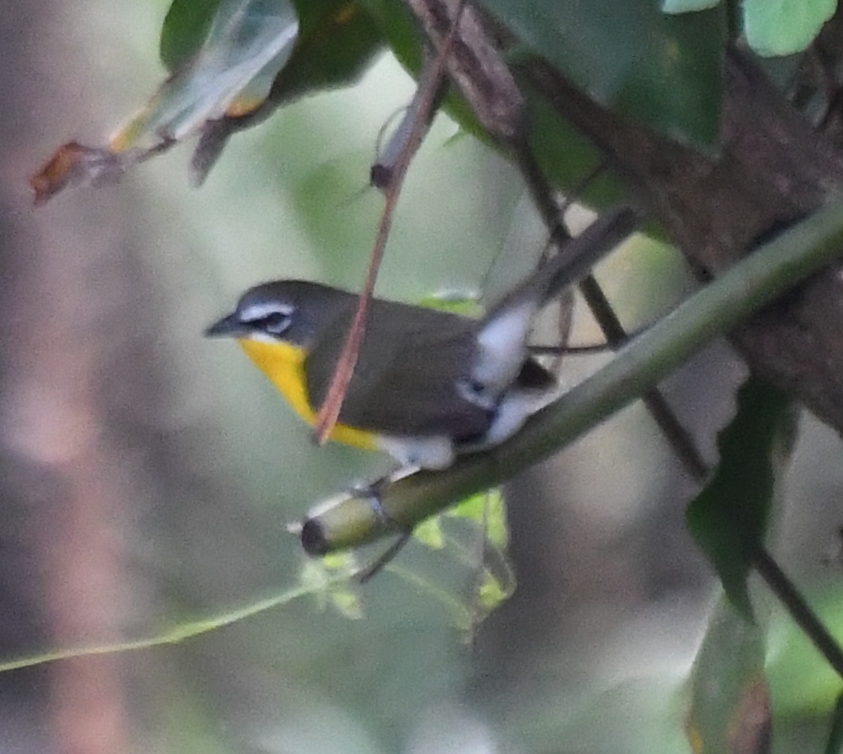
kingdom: Animalia
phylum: Chordata
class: Aves
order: Passeriformes
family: Parulidae
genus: Icteria
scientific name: Icteria virens
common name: Yellow-breasted chat
